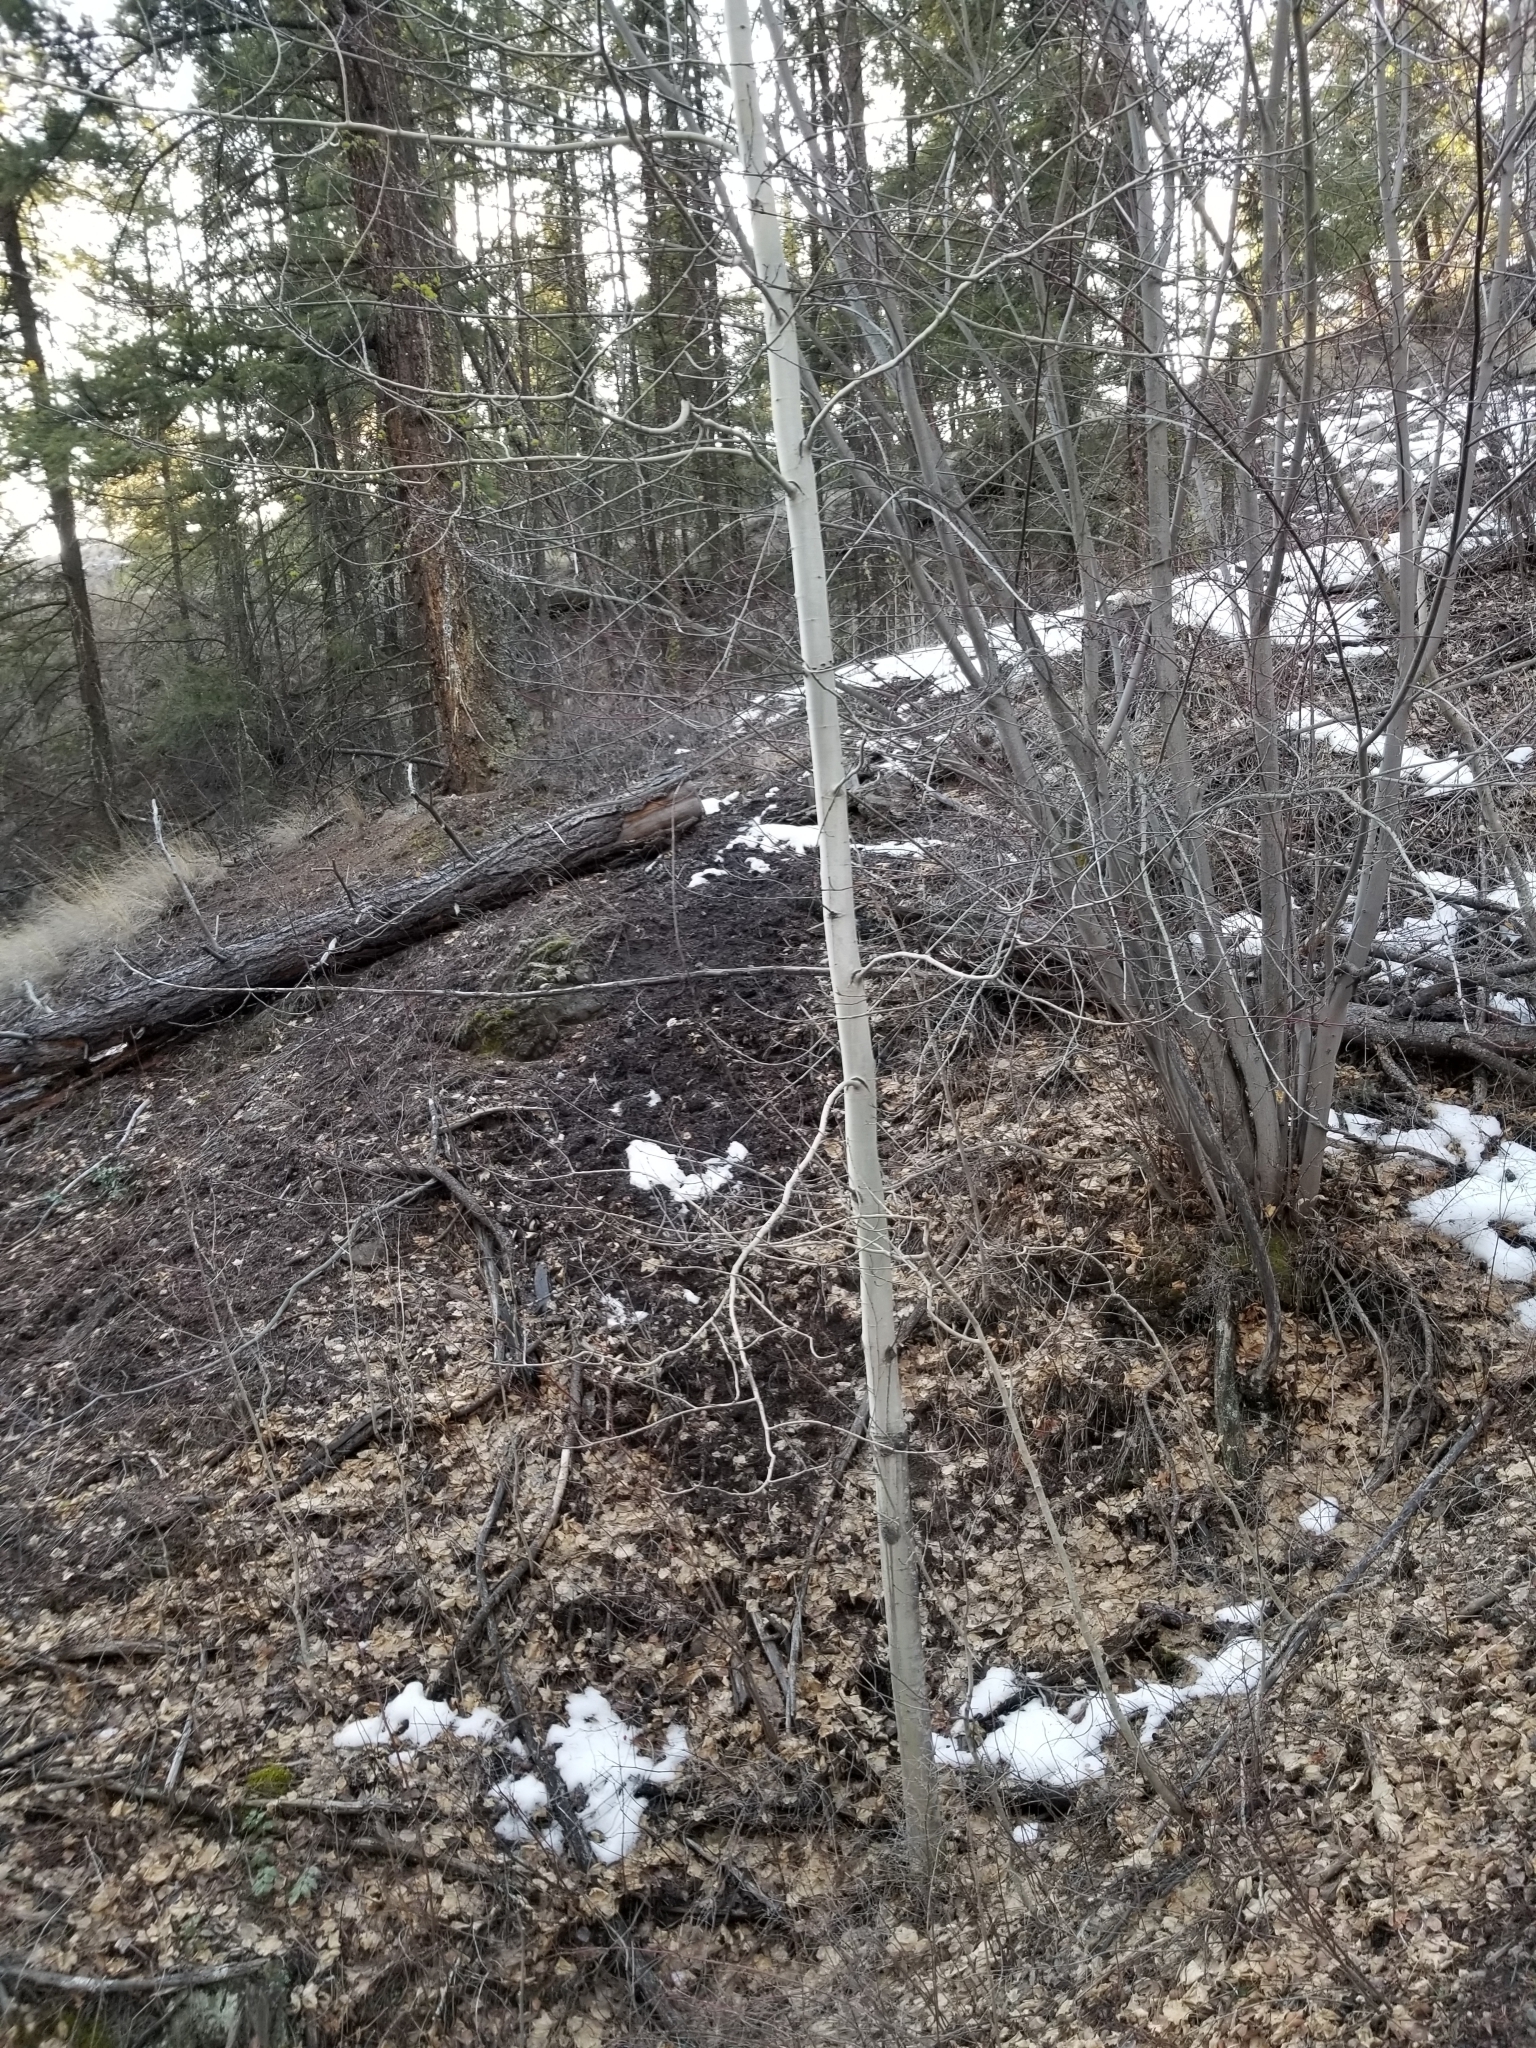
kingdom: Plantae
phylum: Tracheophyta
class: Magnoliopsida
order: Malpighiales
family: Salicaceae
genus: Populus
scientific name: Populus tremuloides
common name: Quaking aspen
